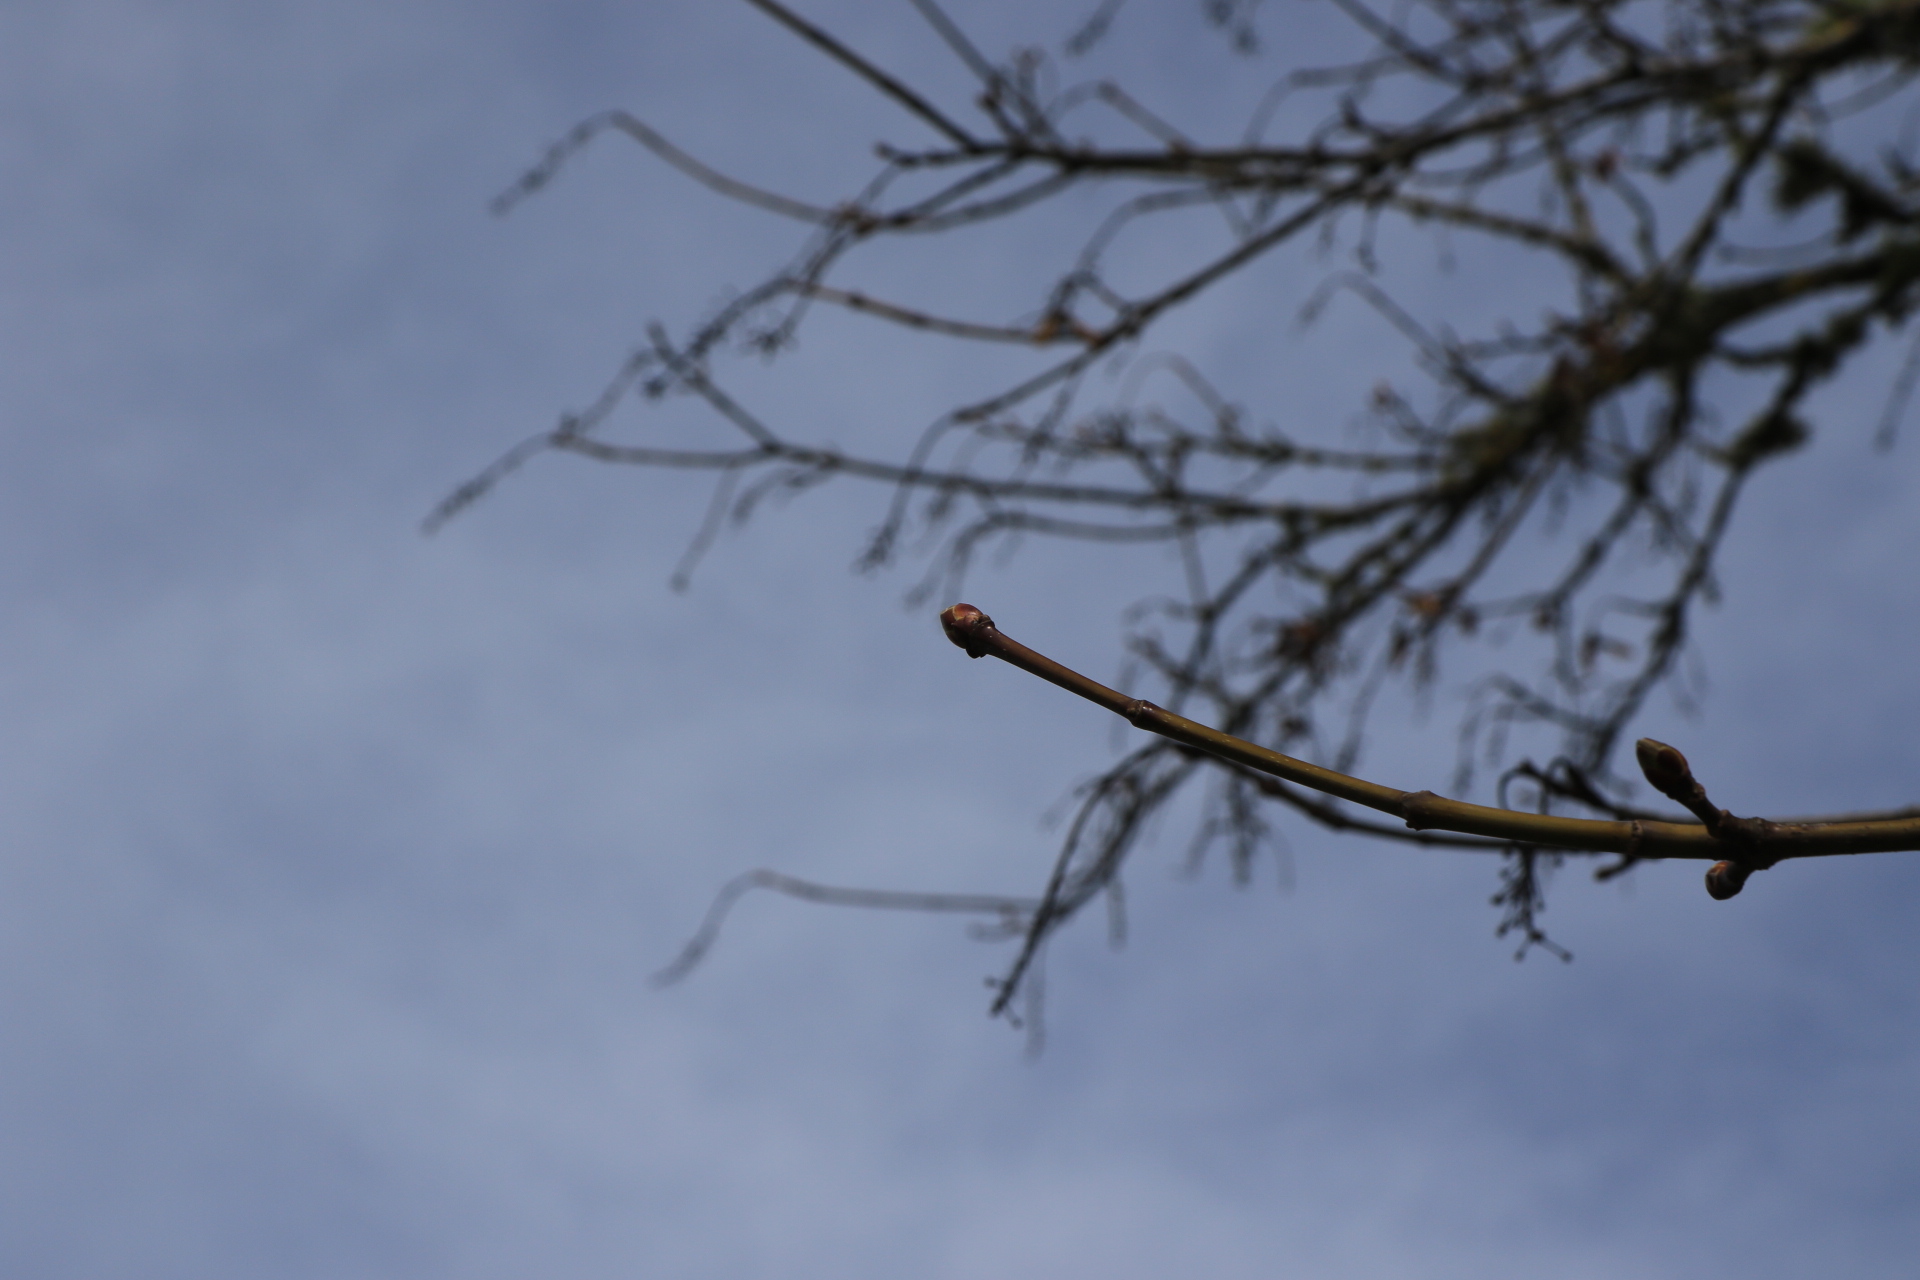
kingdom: Plantae
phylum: Tracheophyta
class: Magnoliopsida
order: Sapindales
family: Sapindaceae
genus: Acer
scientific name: Acer macrophyllum
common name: Oregon maple
